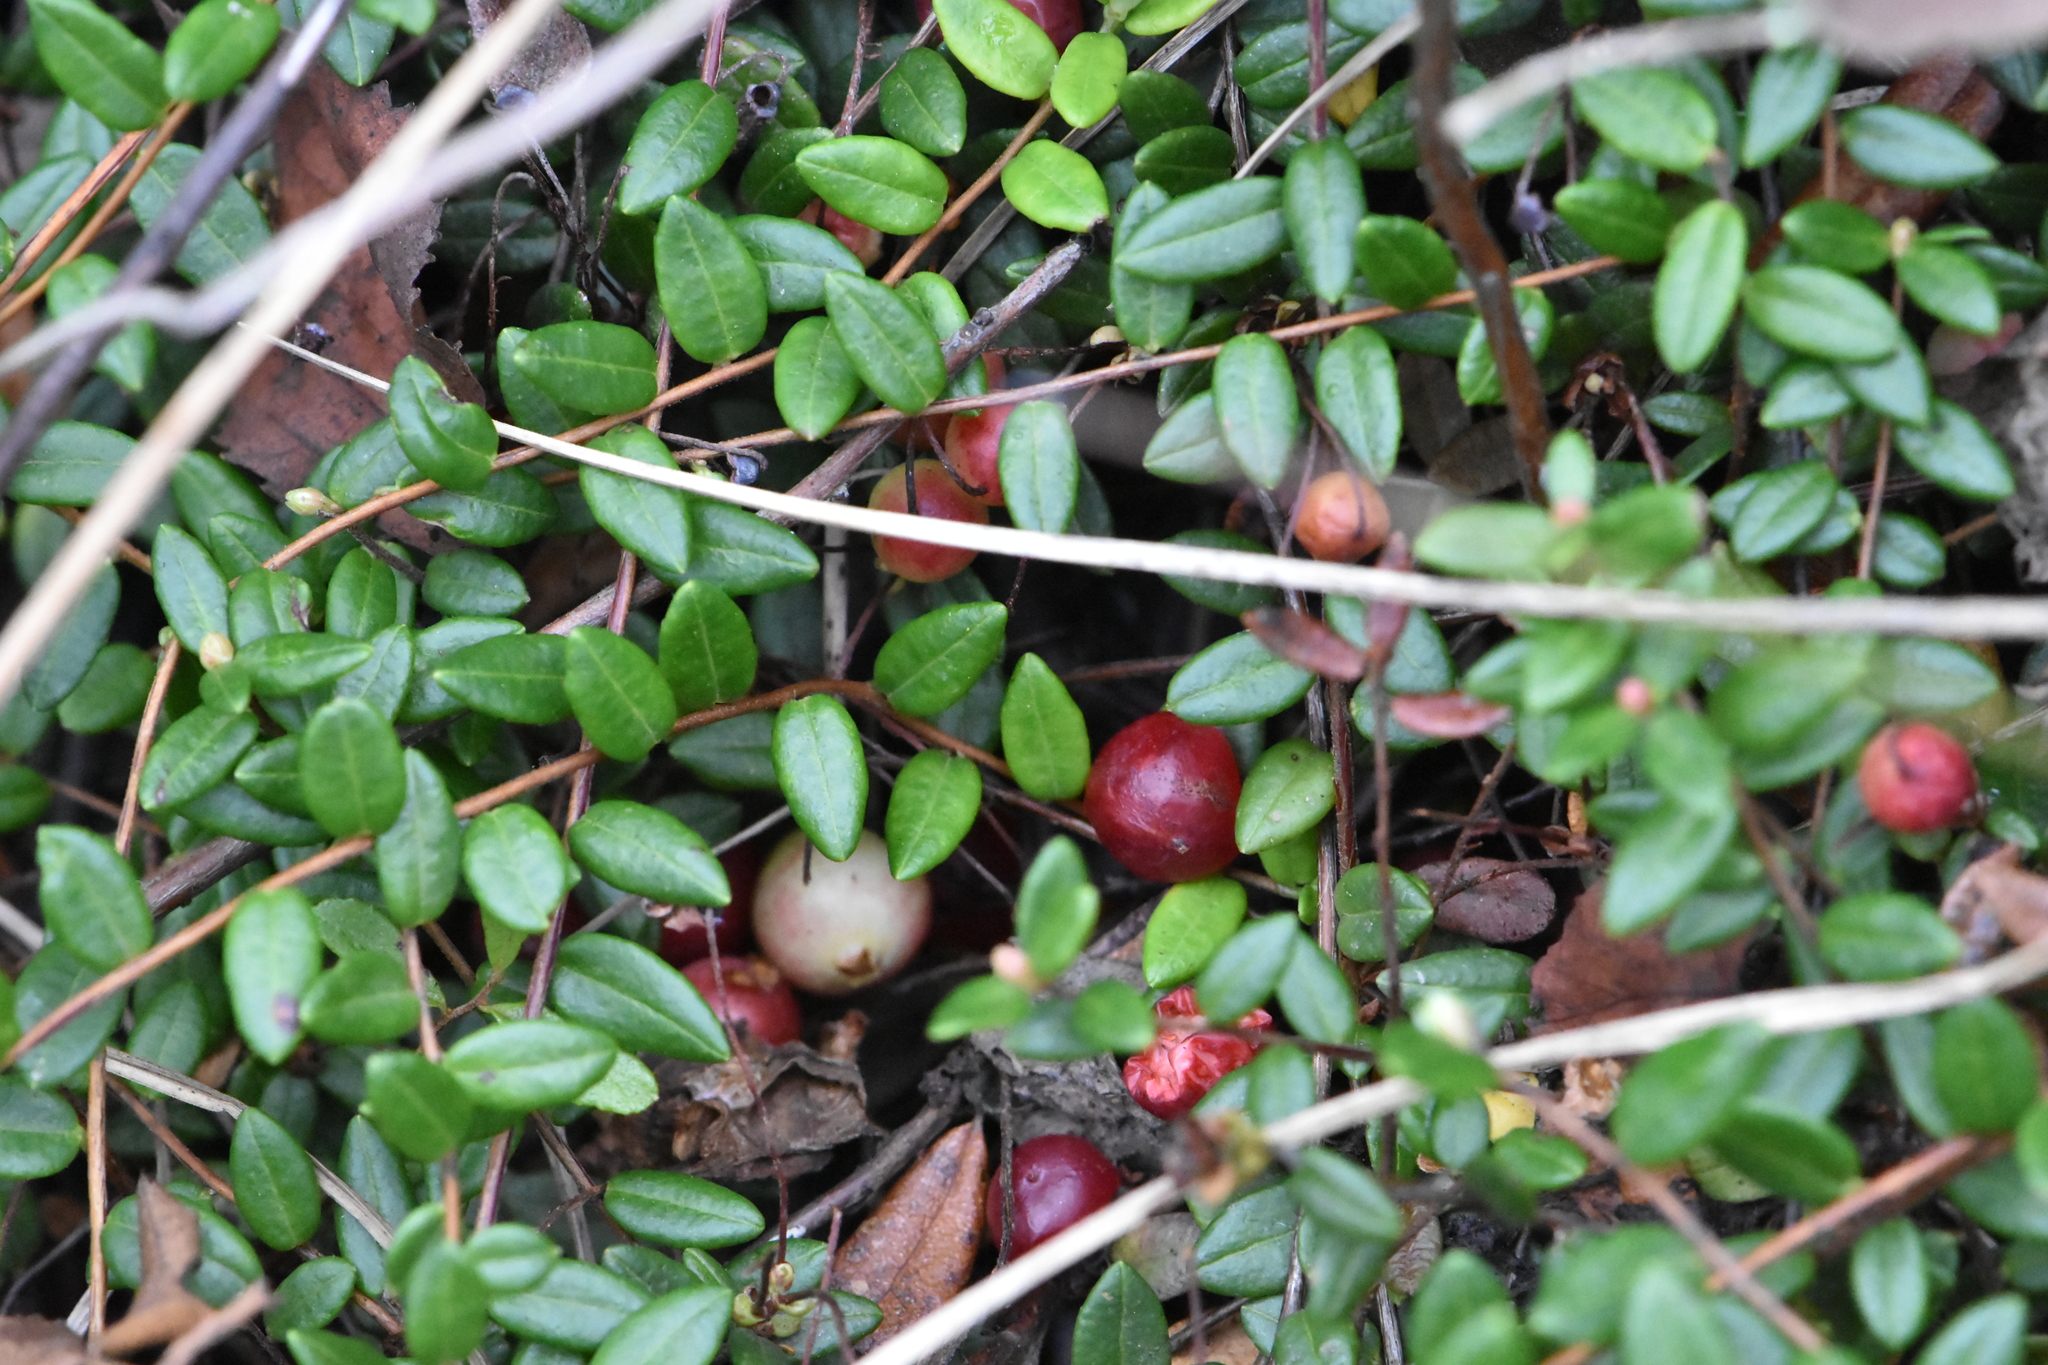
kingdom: Plantae
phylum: Tracheophyta
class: Magnoliopsida
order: Ericales
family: Ericaceae
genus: Vaccinium
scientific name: Vaccinium oxycoccos
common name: Cranberry
